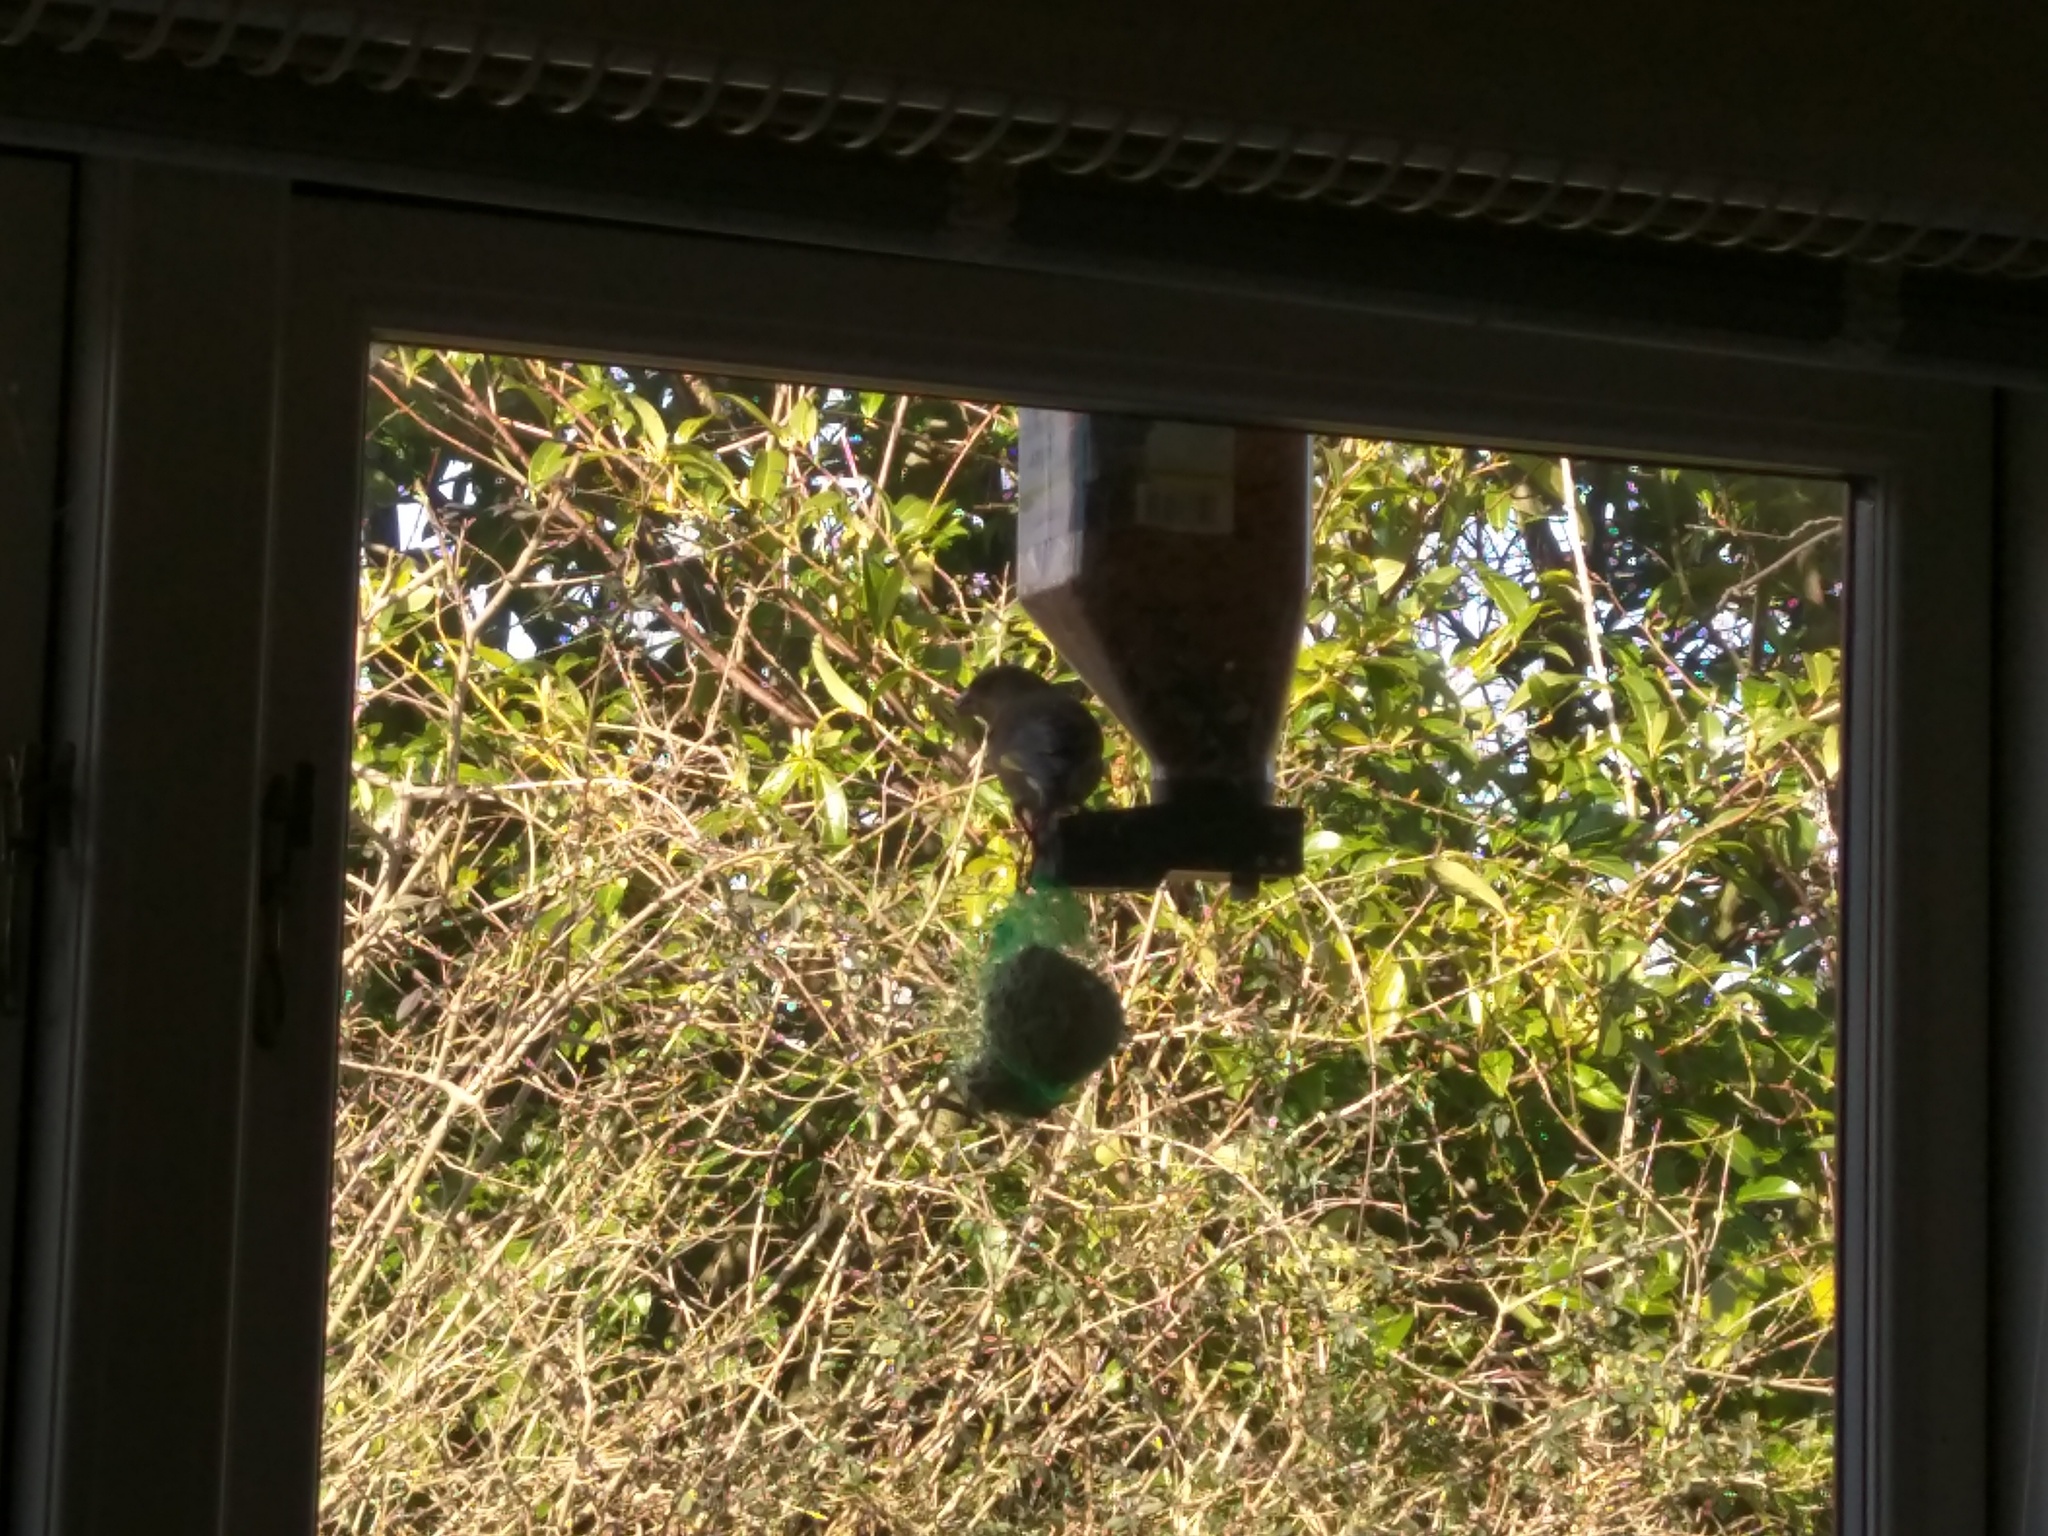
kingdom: Plantae
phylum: Tracheophyta
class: Liliopsida
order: Poales
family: Poaceae
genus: Chloris
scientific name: Chloris chloris
